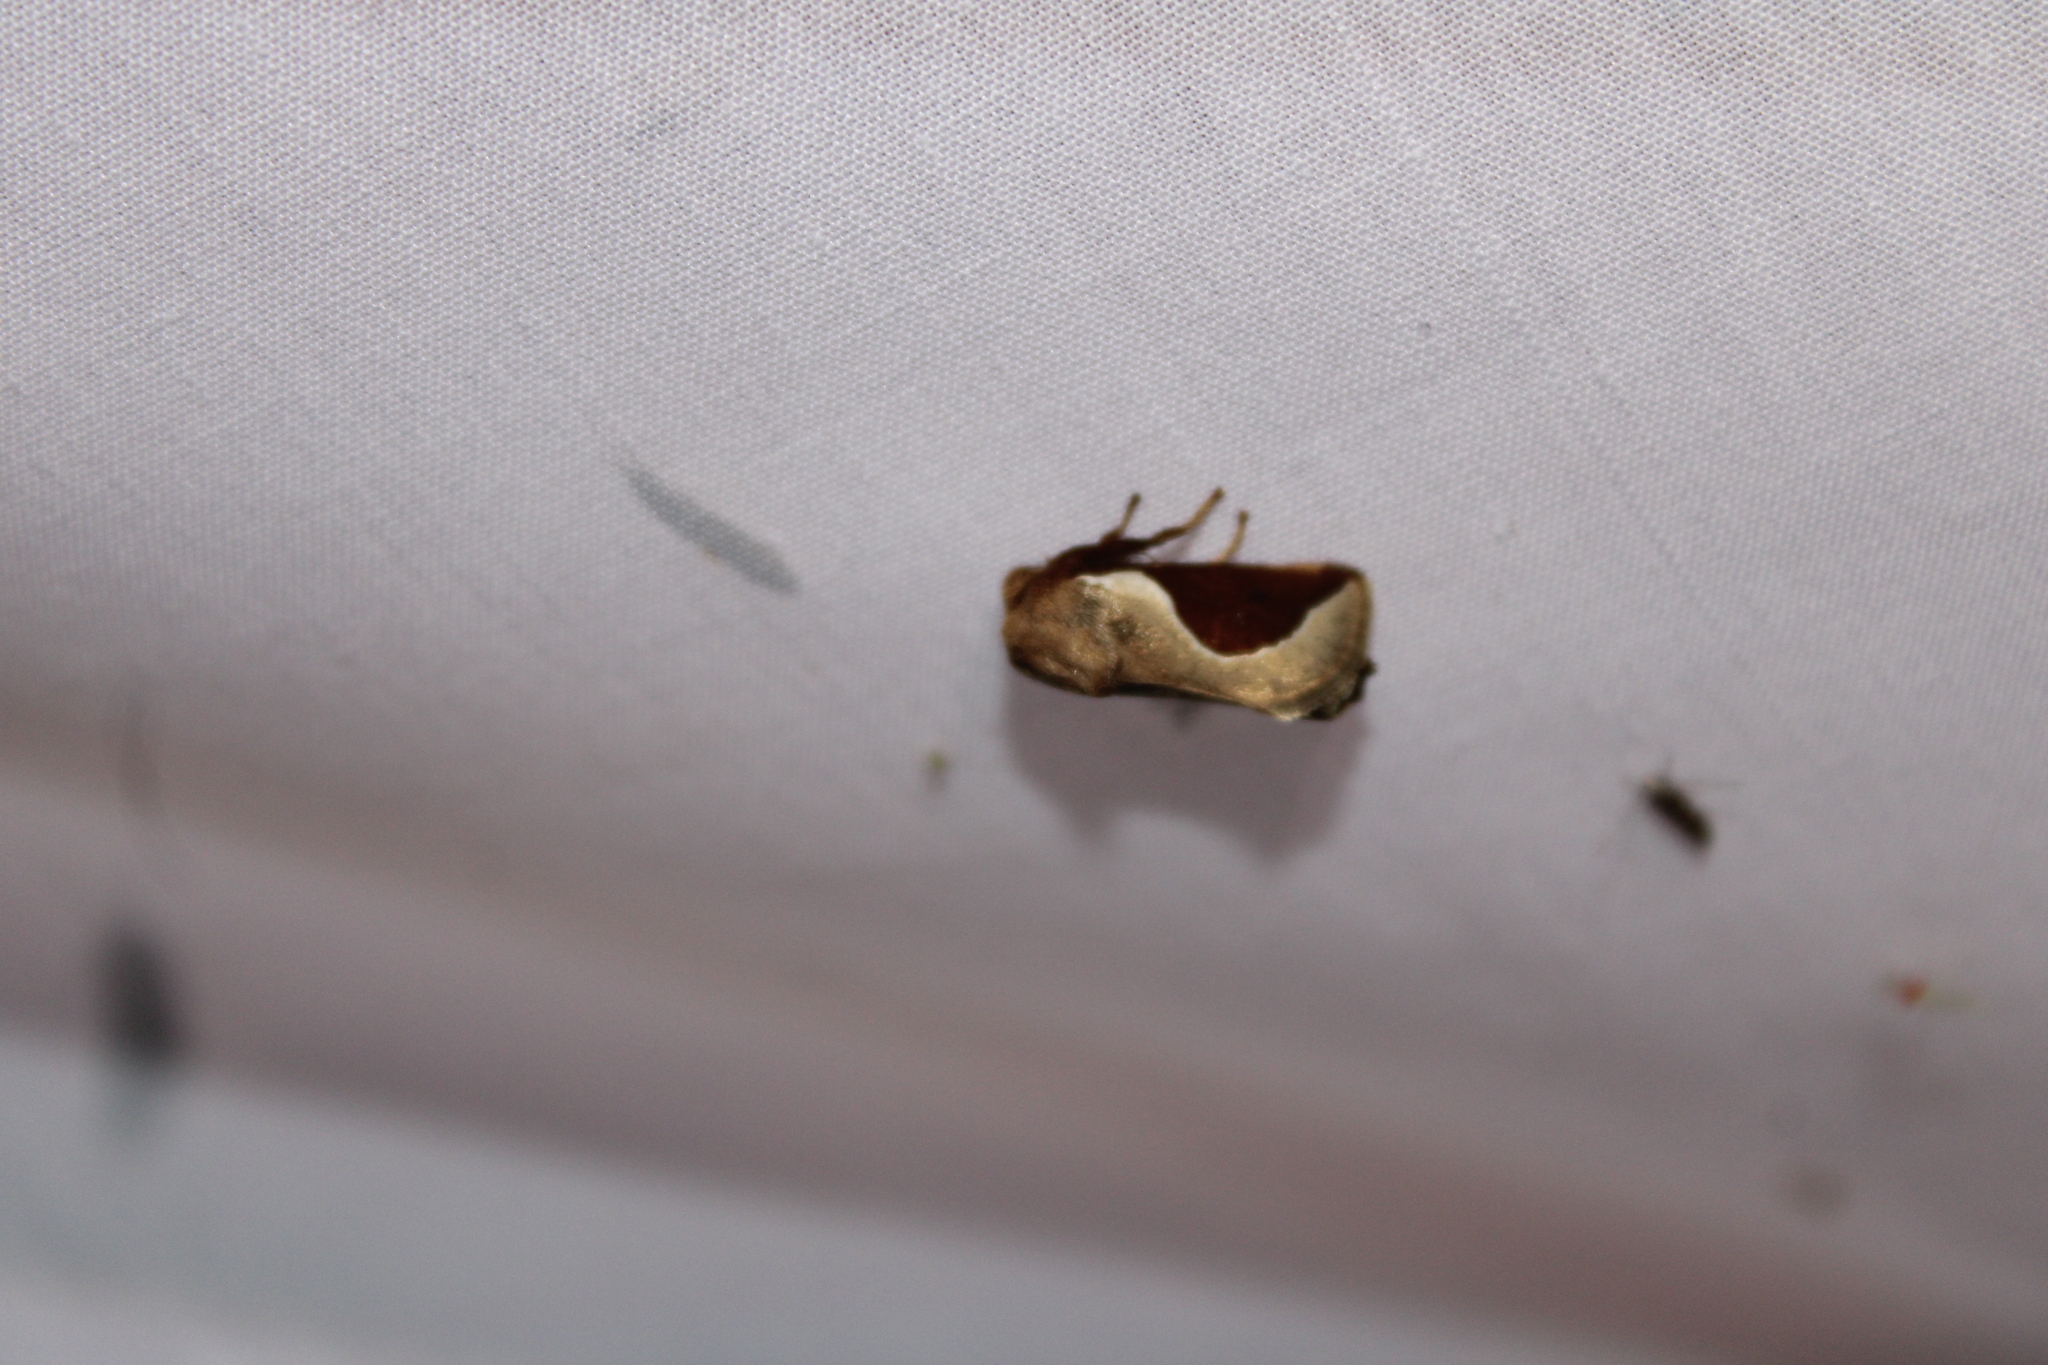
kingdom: Animalia
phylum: Arthropoda
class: Insecta
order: Lepidoptera
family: Limacodidae
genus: Prolimacodes
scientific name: Prolimacodes badia
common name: Skiff moth
